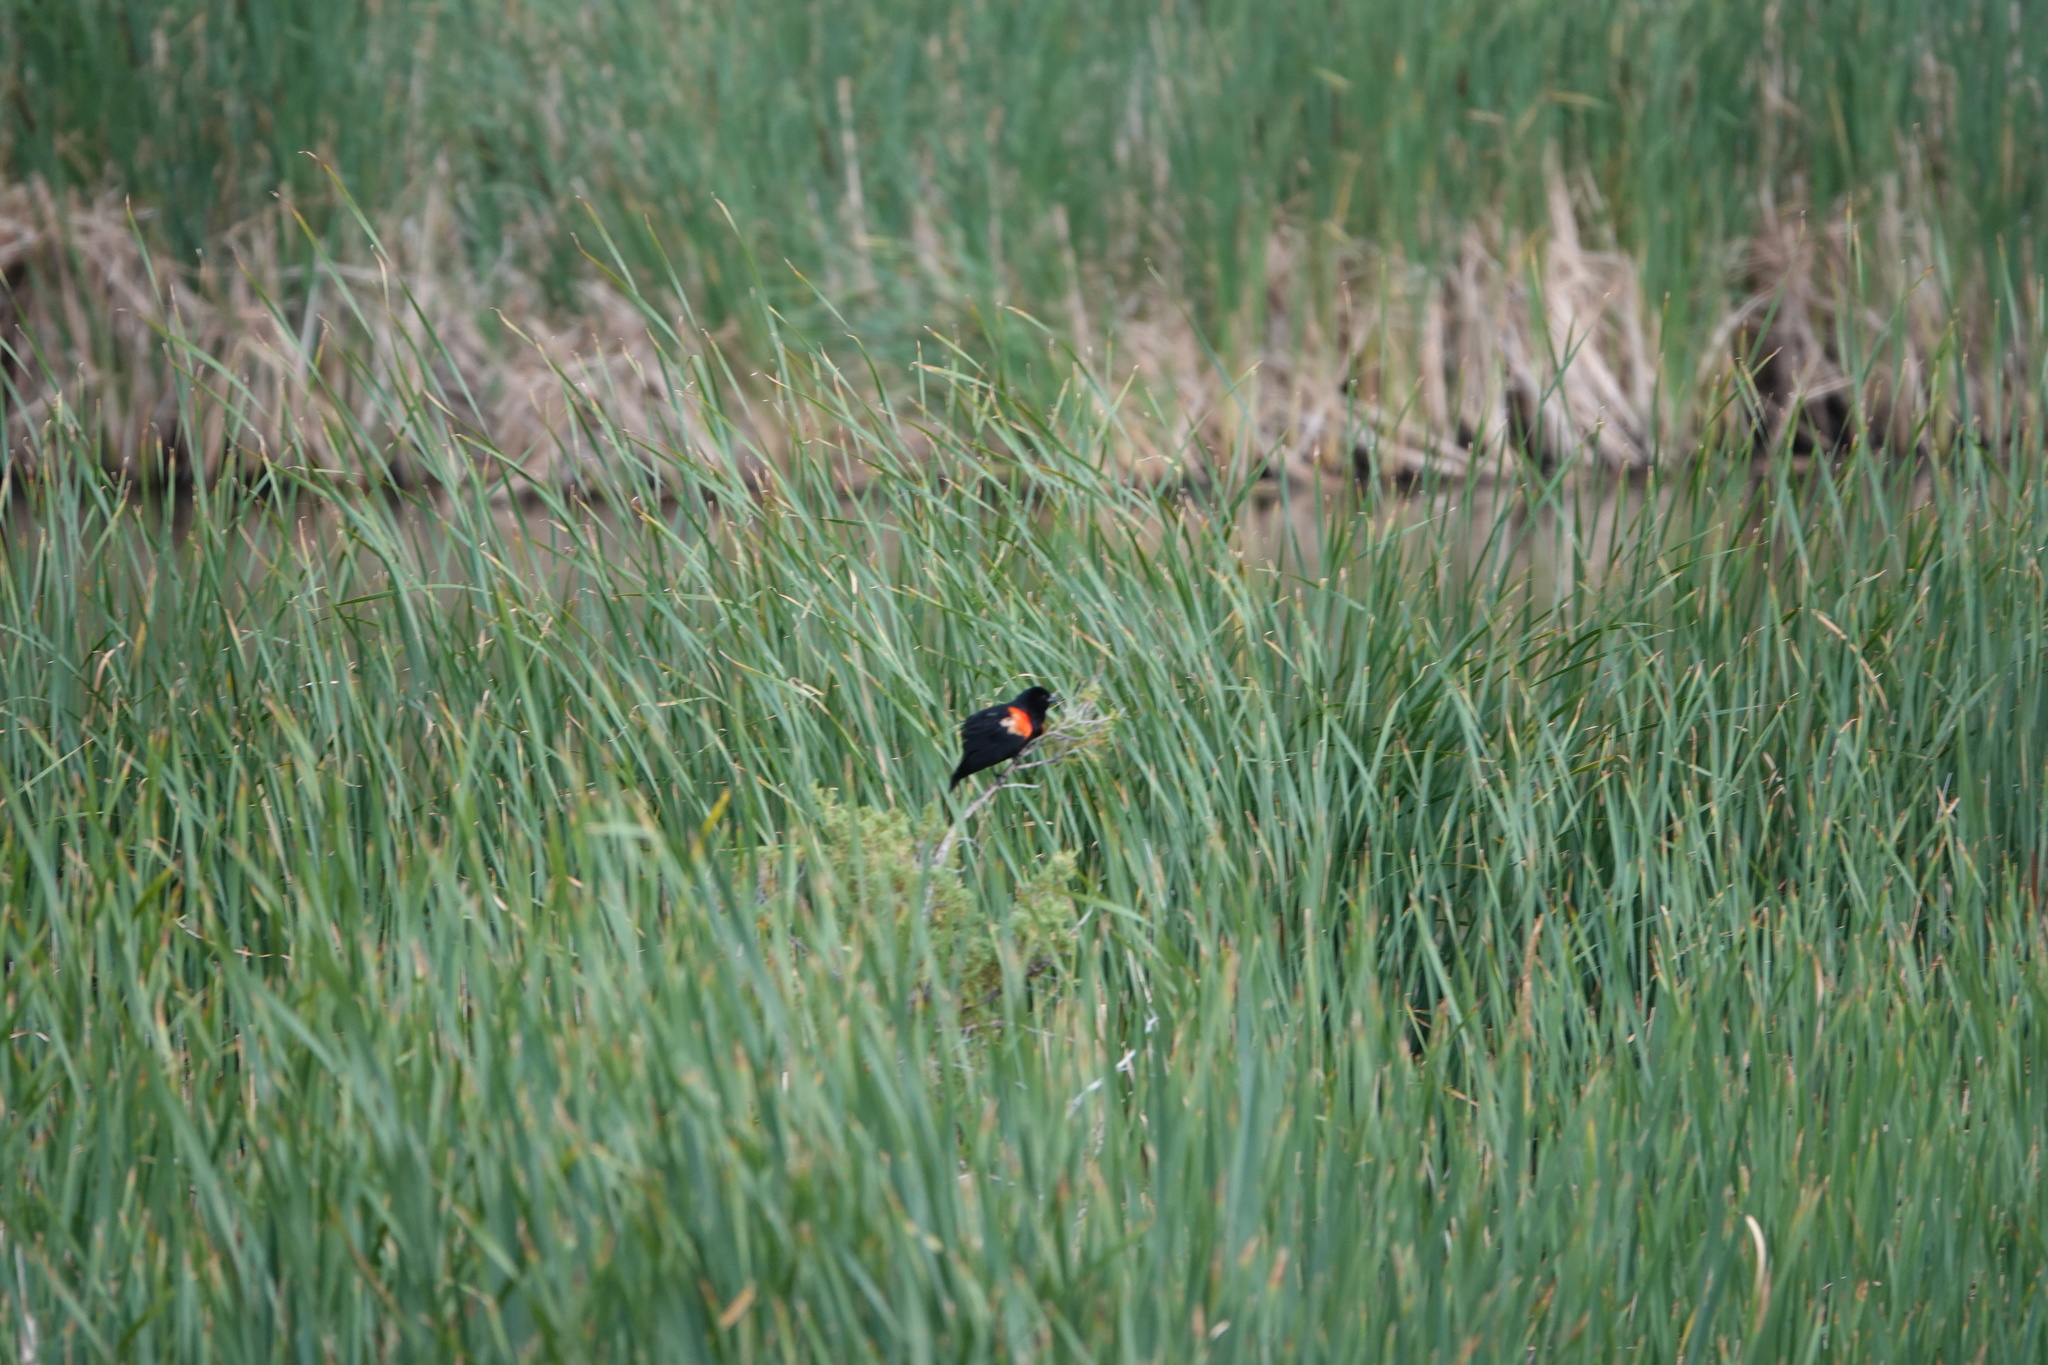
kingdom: Animalia
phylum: Chordata
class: Aves
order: Passeriformes
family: Icteridae
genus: Agelaius
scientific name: Agelaius phoeniceus
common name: Red-winged blackbird
